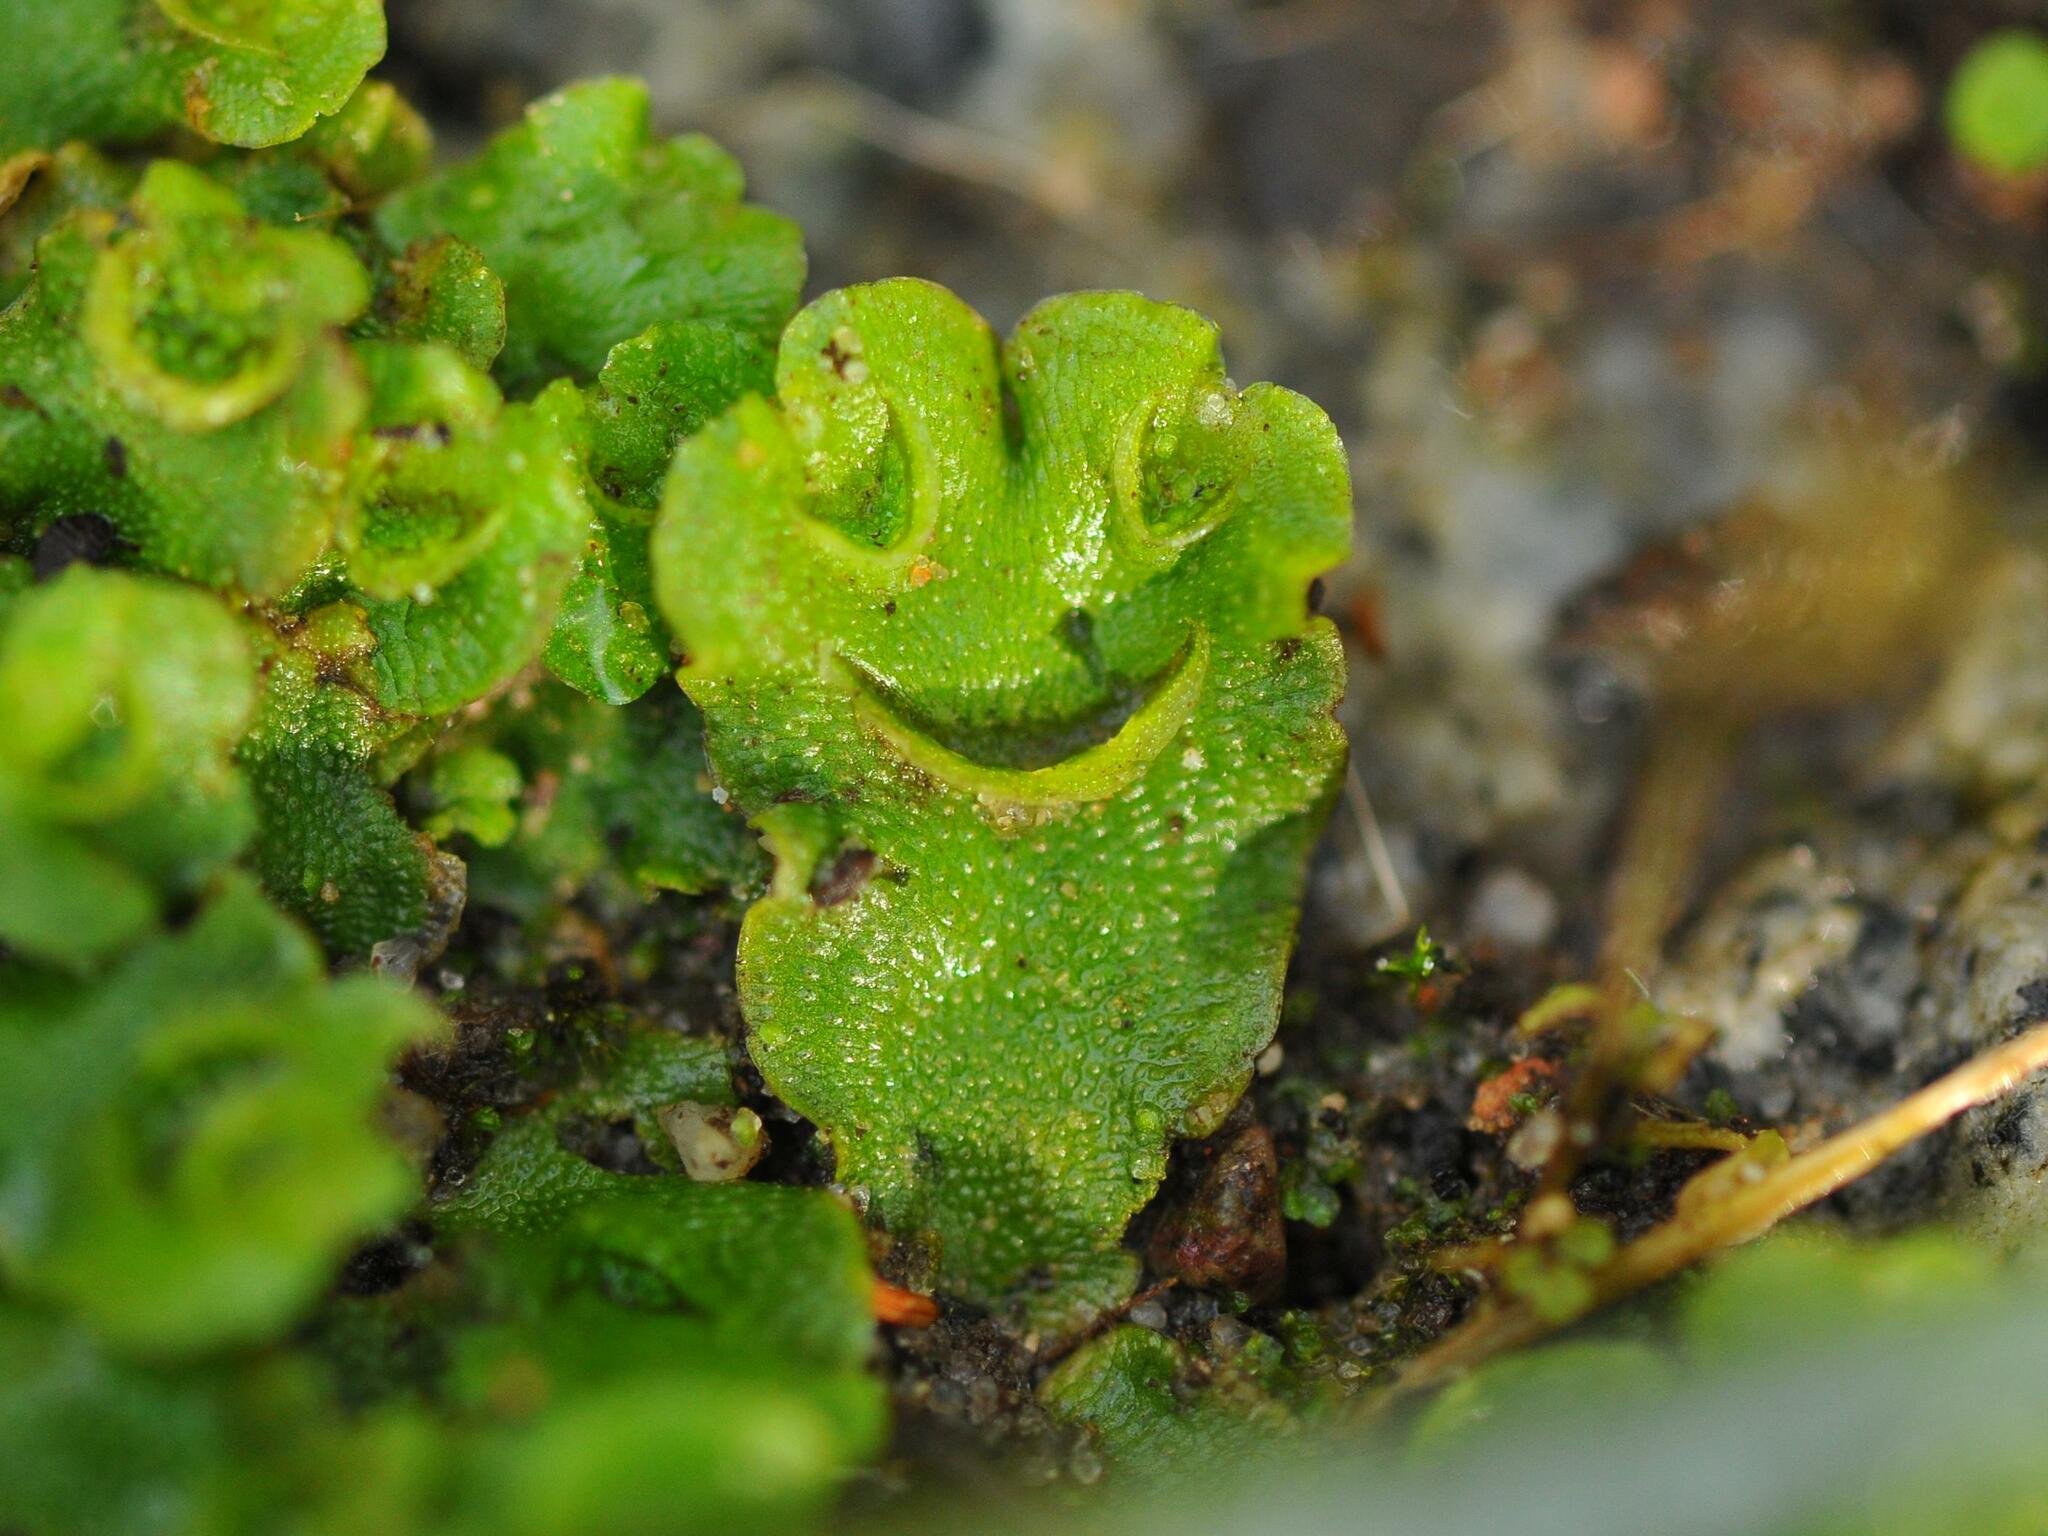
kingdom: Plantae
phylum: Marchantiophyta
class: Marchantiopsida
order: Lunulariales
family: Lunulariaceae
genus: Lunularia
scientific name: Lunularia cruciata
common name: Crescent-cup liverwort
